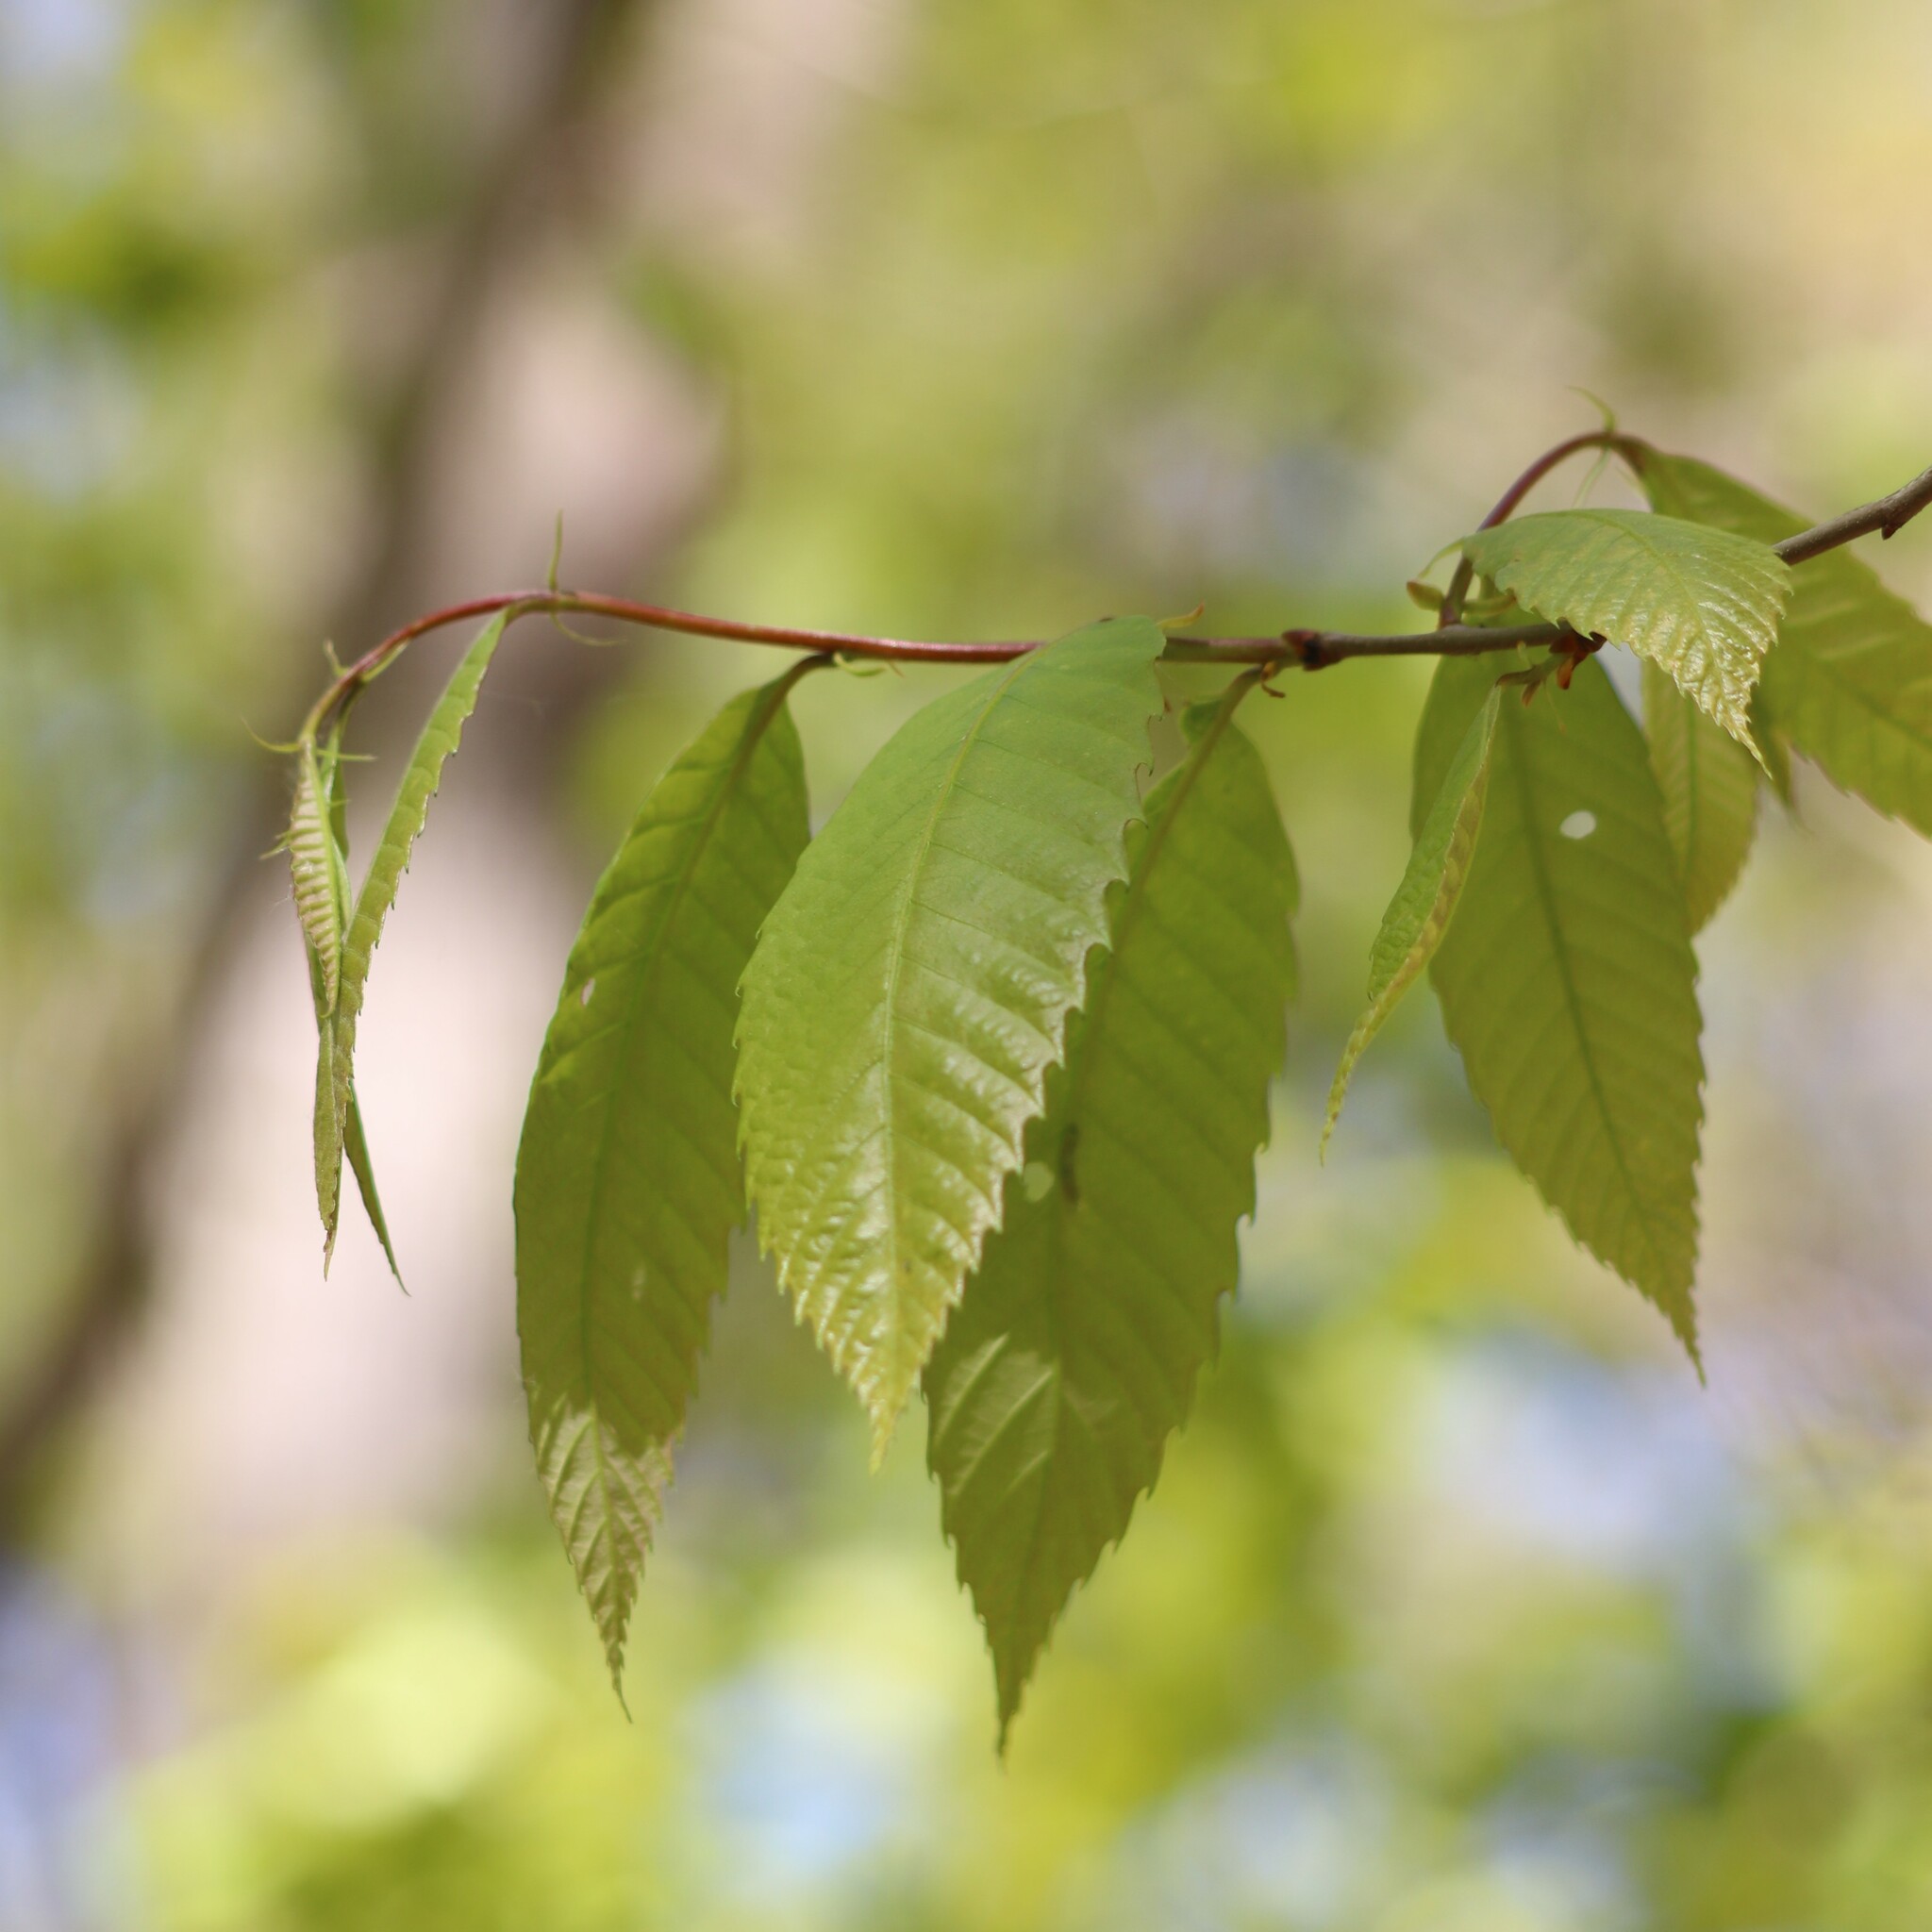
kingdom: Plantae
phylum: Tracheophyta
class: Magnoliopsida
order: Fagales
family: Fagaceae
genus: Castanea
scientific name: Castanea dentata
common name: American chestnut
